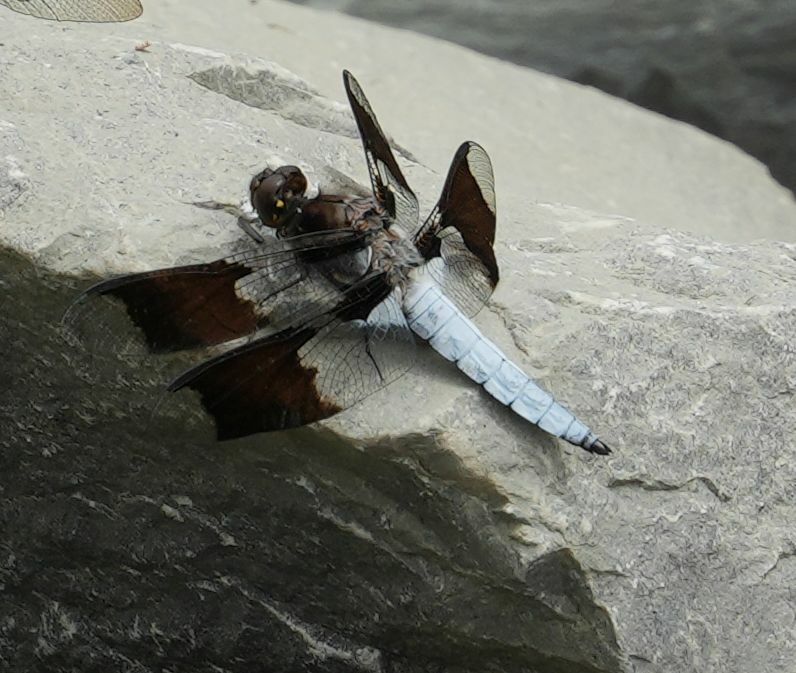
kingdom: Animalia
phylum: Arthropoda
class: Insecta
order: Odonata
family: Libellulidae
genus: Plathemis
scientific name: Plathemis lydia
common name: Common whitetail
